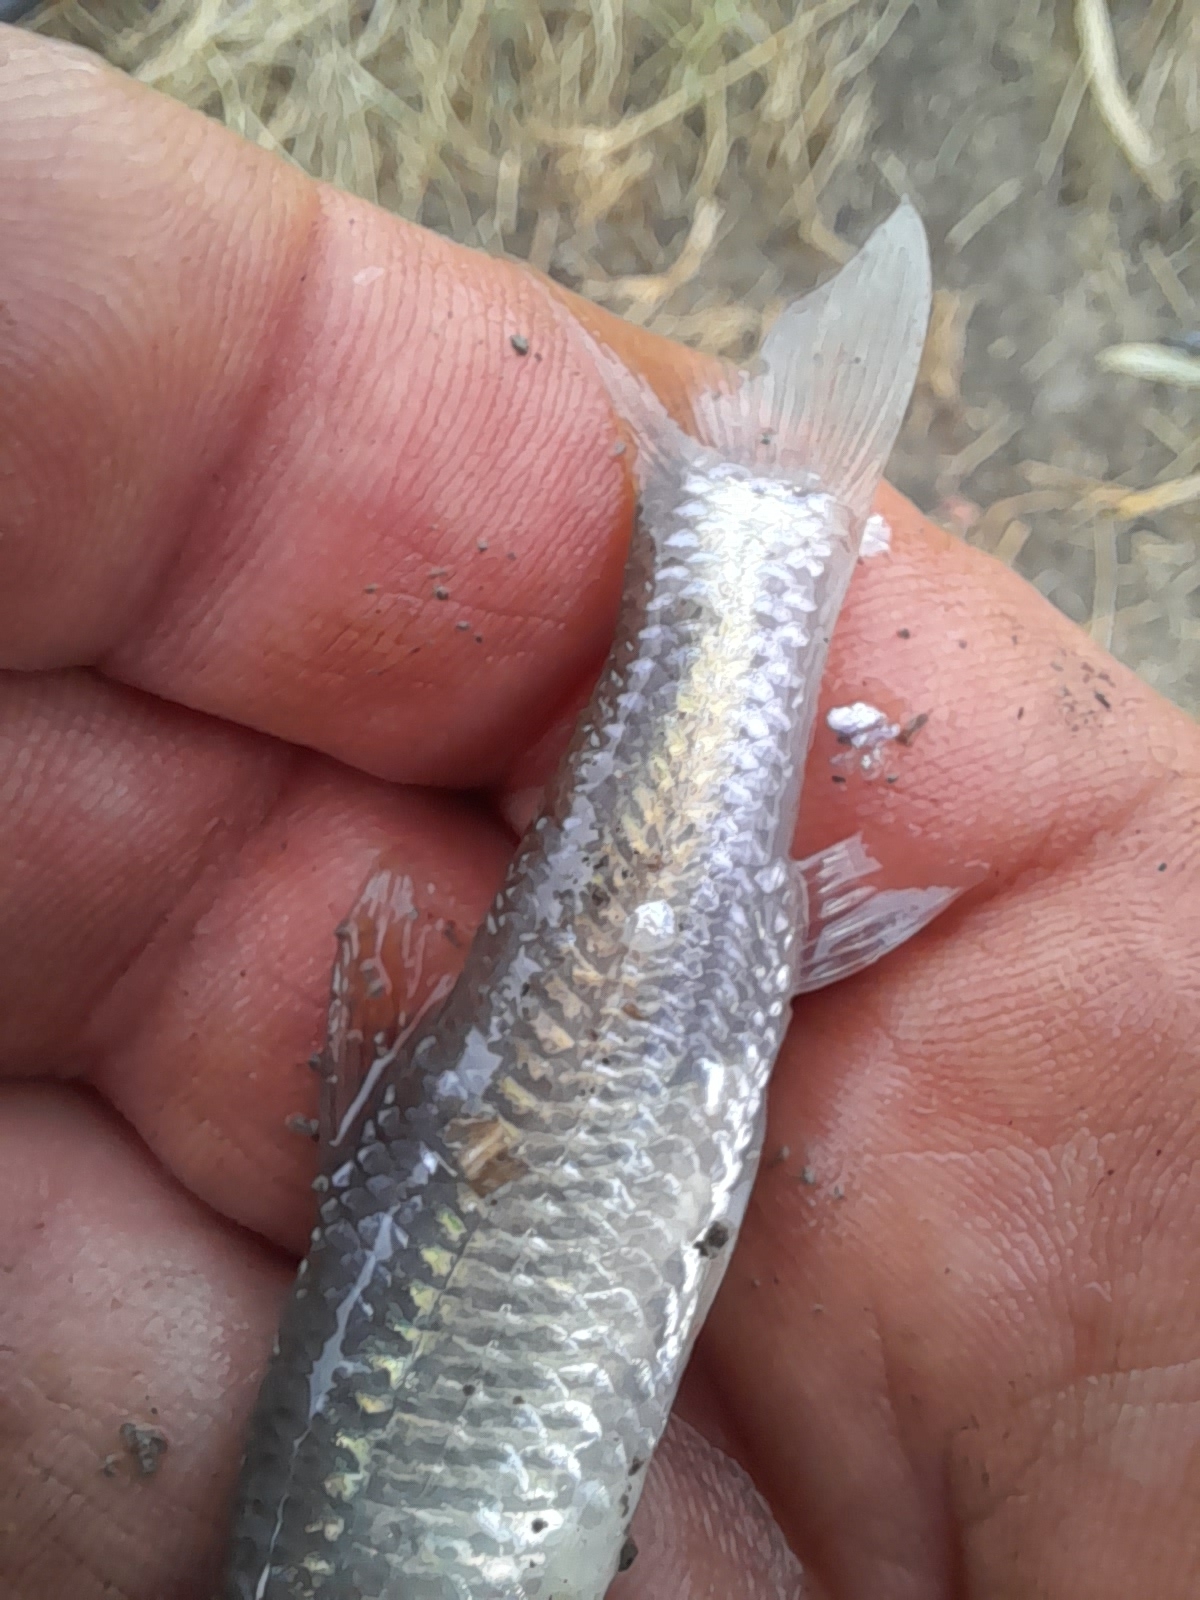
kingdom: Animalia
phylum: Chordata
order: Cypriniformes
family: Cyprinidae
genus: Pseudorasbora
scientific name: Pseudorasbora parva
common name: Topmouth gudgeon
